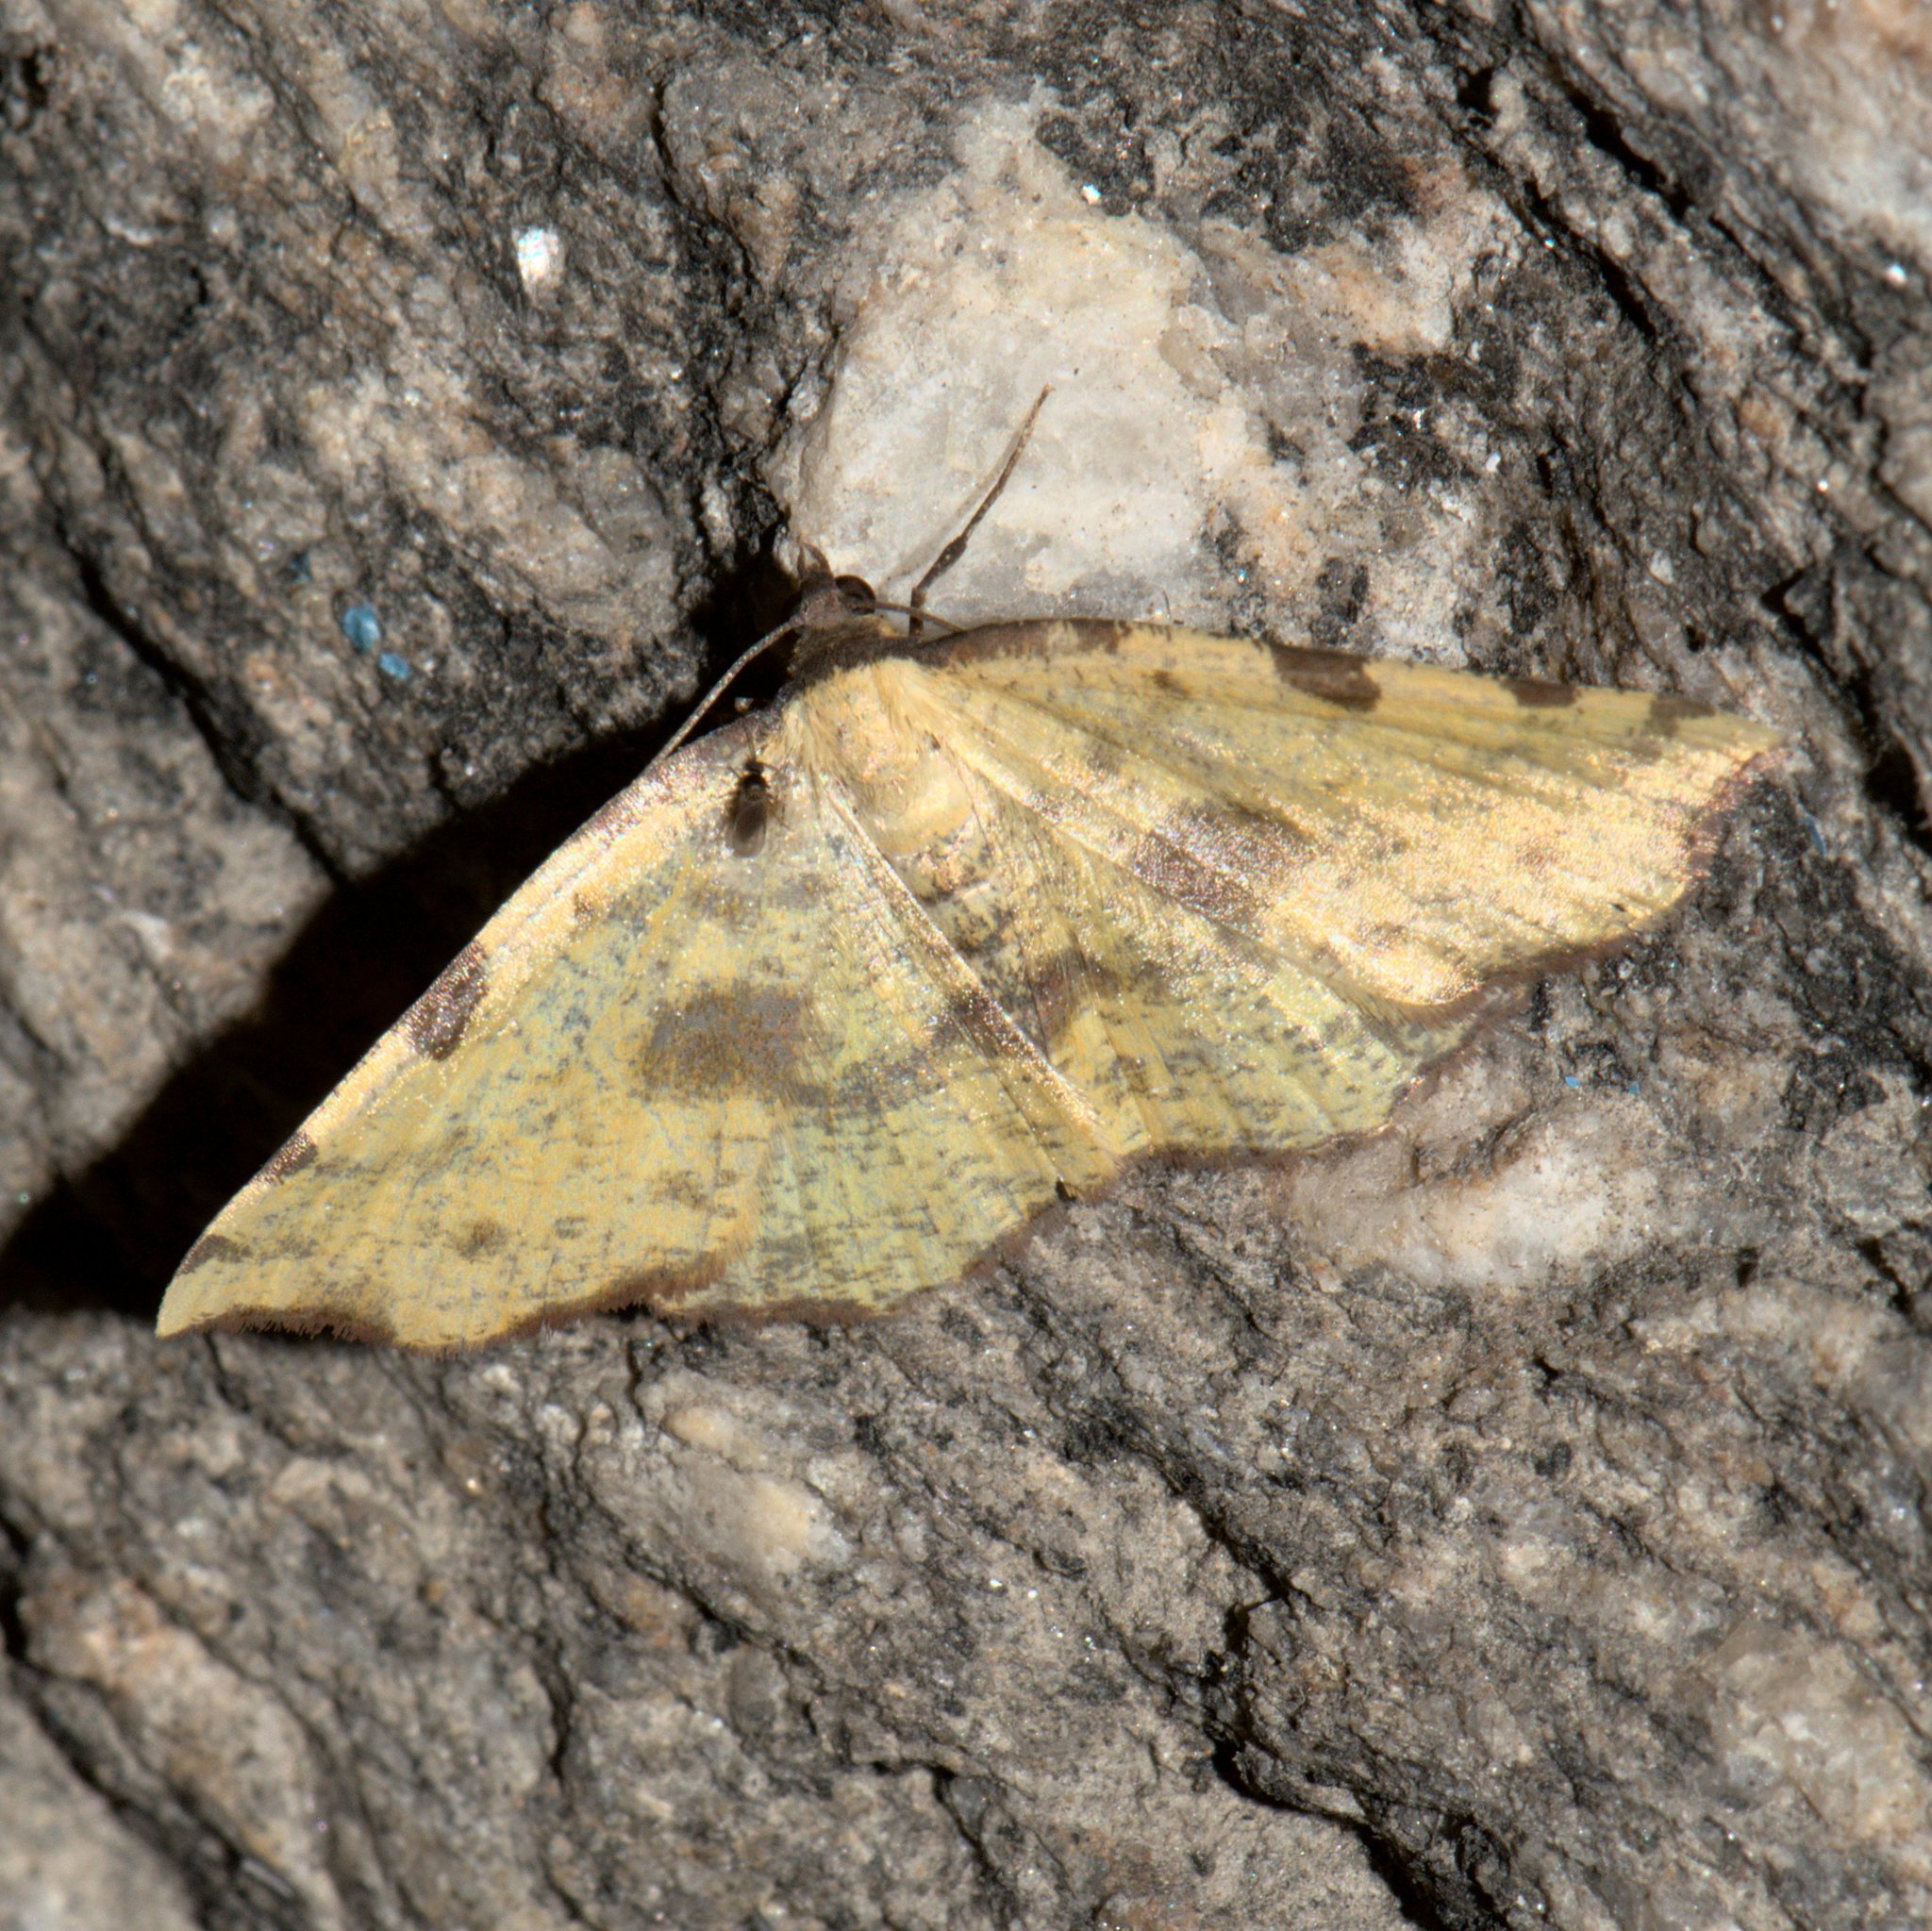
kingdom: Animalia
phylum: Arthropoda
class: Insecta
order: Lepidoptera
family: Geometridae
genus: Pseudopanthera
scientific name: Pseudopanthera himaleyica
